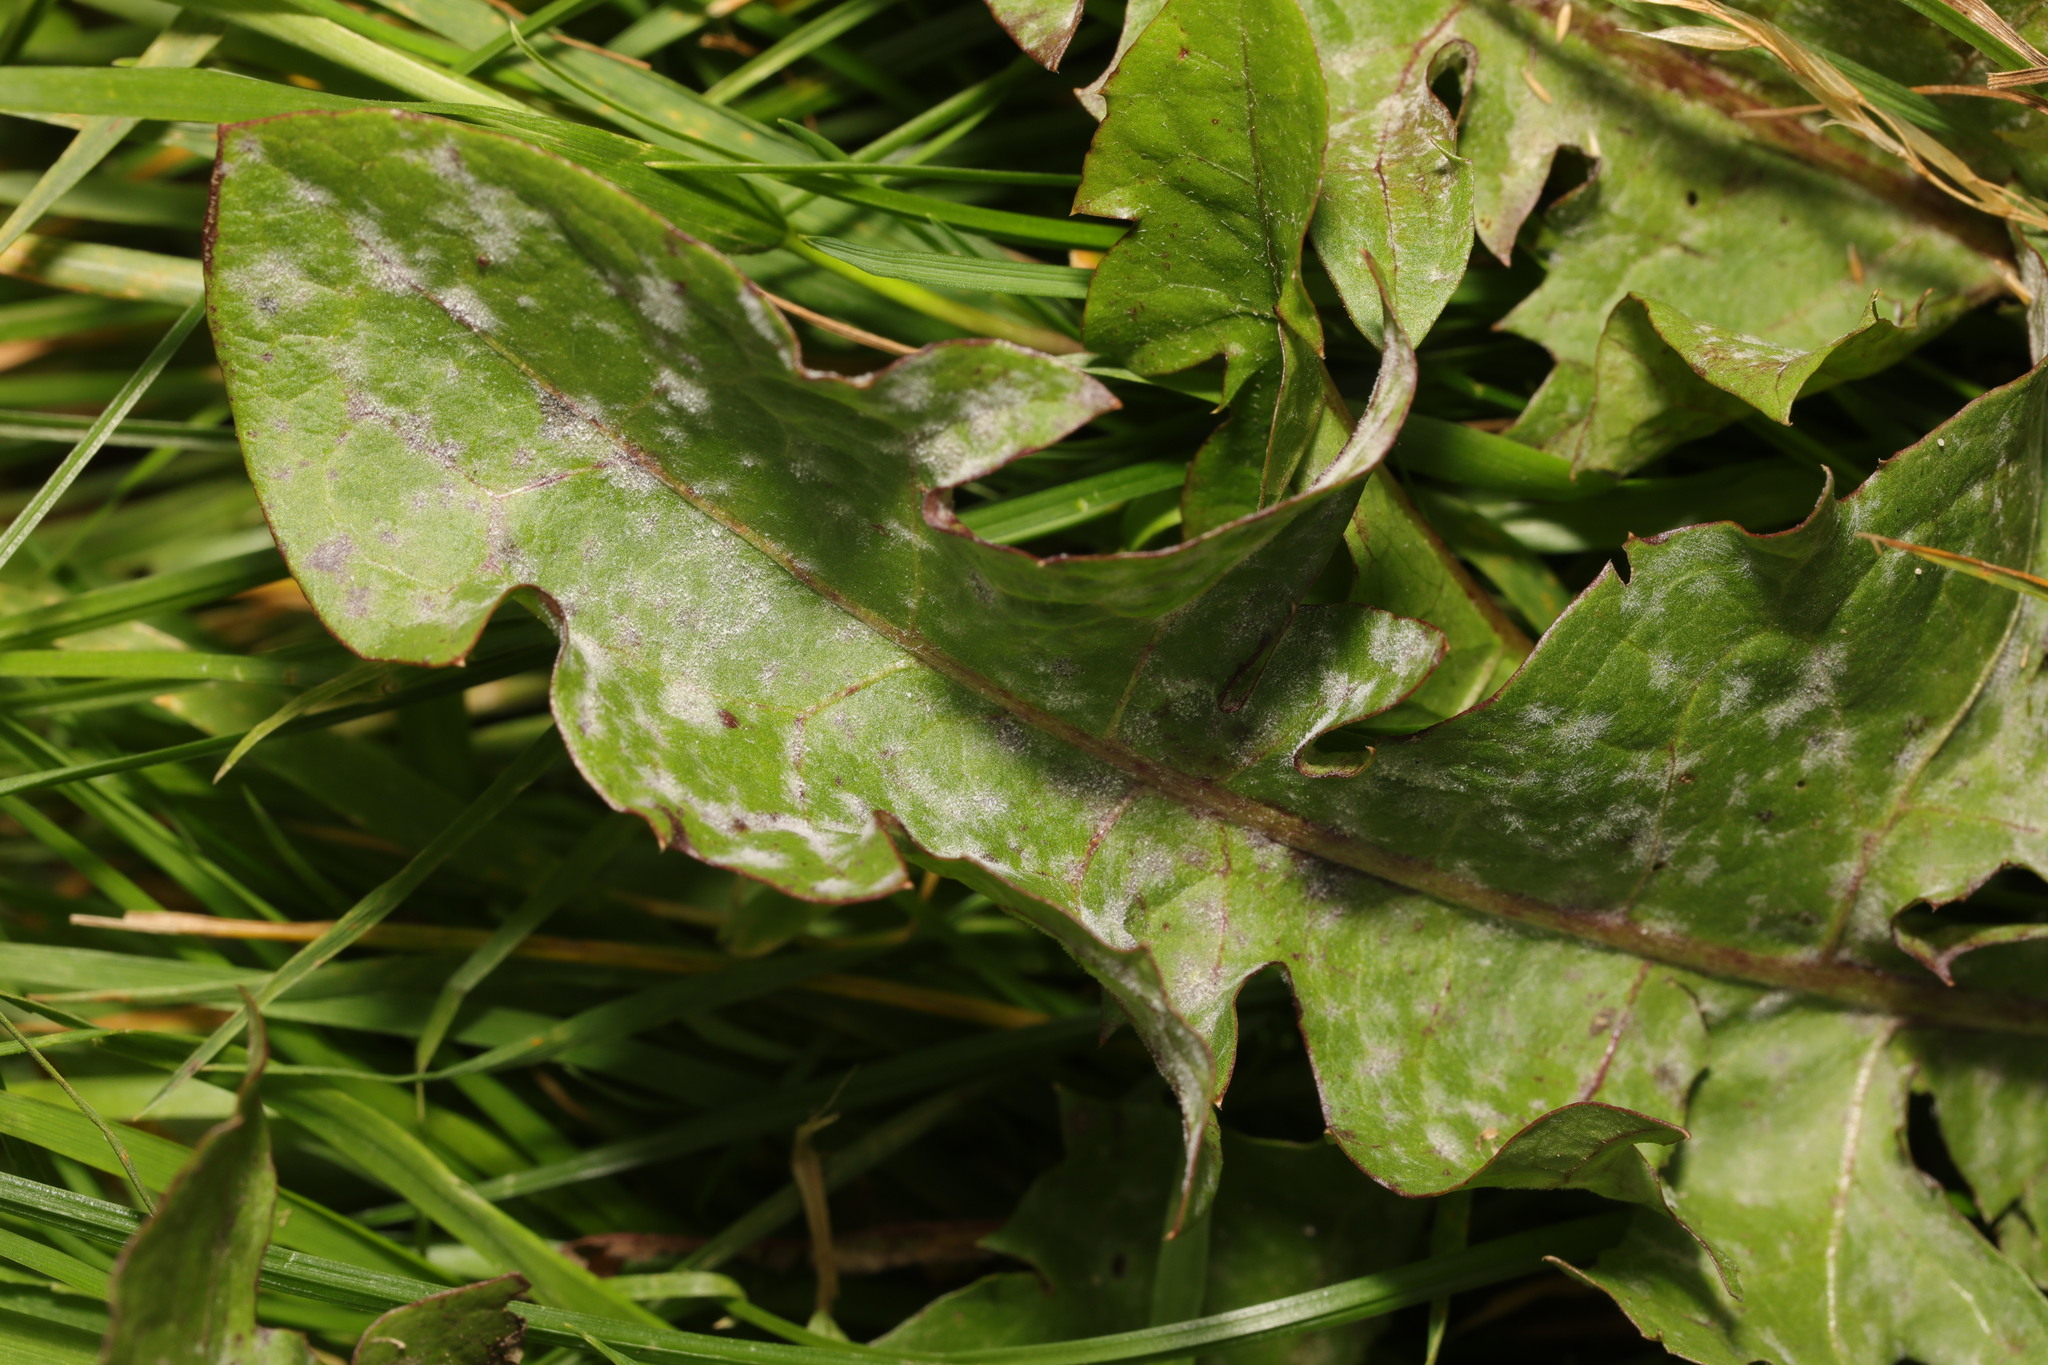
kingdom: Fungi
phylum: Ascomycota
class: Leotiomycetes
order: Helotiales
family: Erysiphaceae
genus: Podosphaera
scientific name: Podosphaera erigerontis-canadensis
